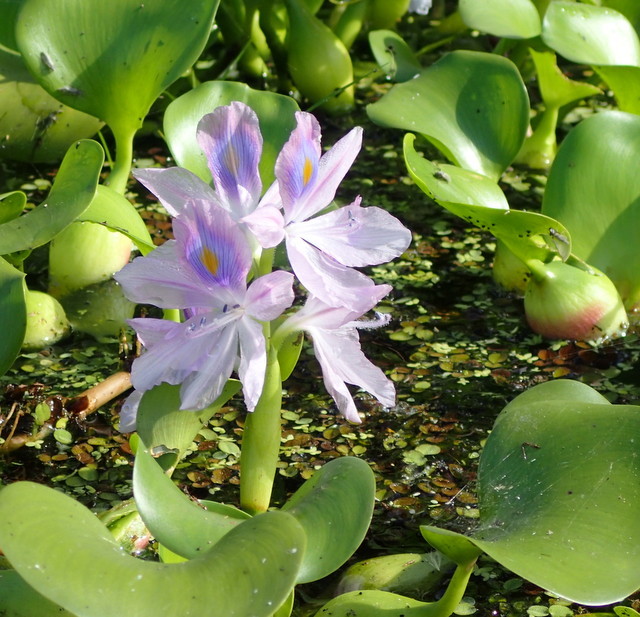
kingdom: Plantae
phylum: Tracheophyta
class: Liliopsida
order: Commelinales
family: Pontederiaceae
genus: Pontederia
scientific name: Pontederia crassipes
